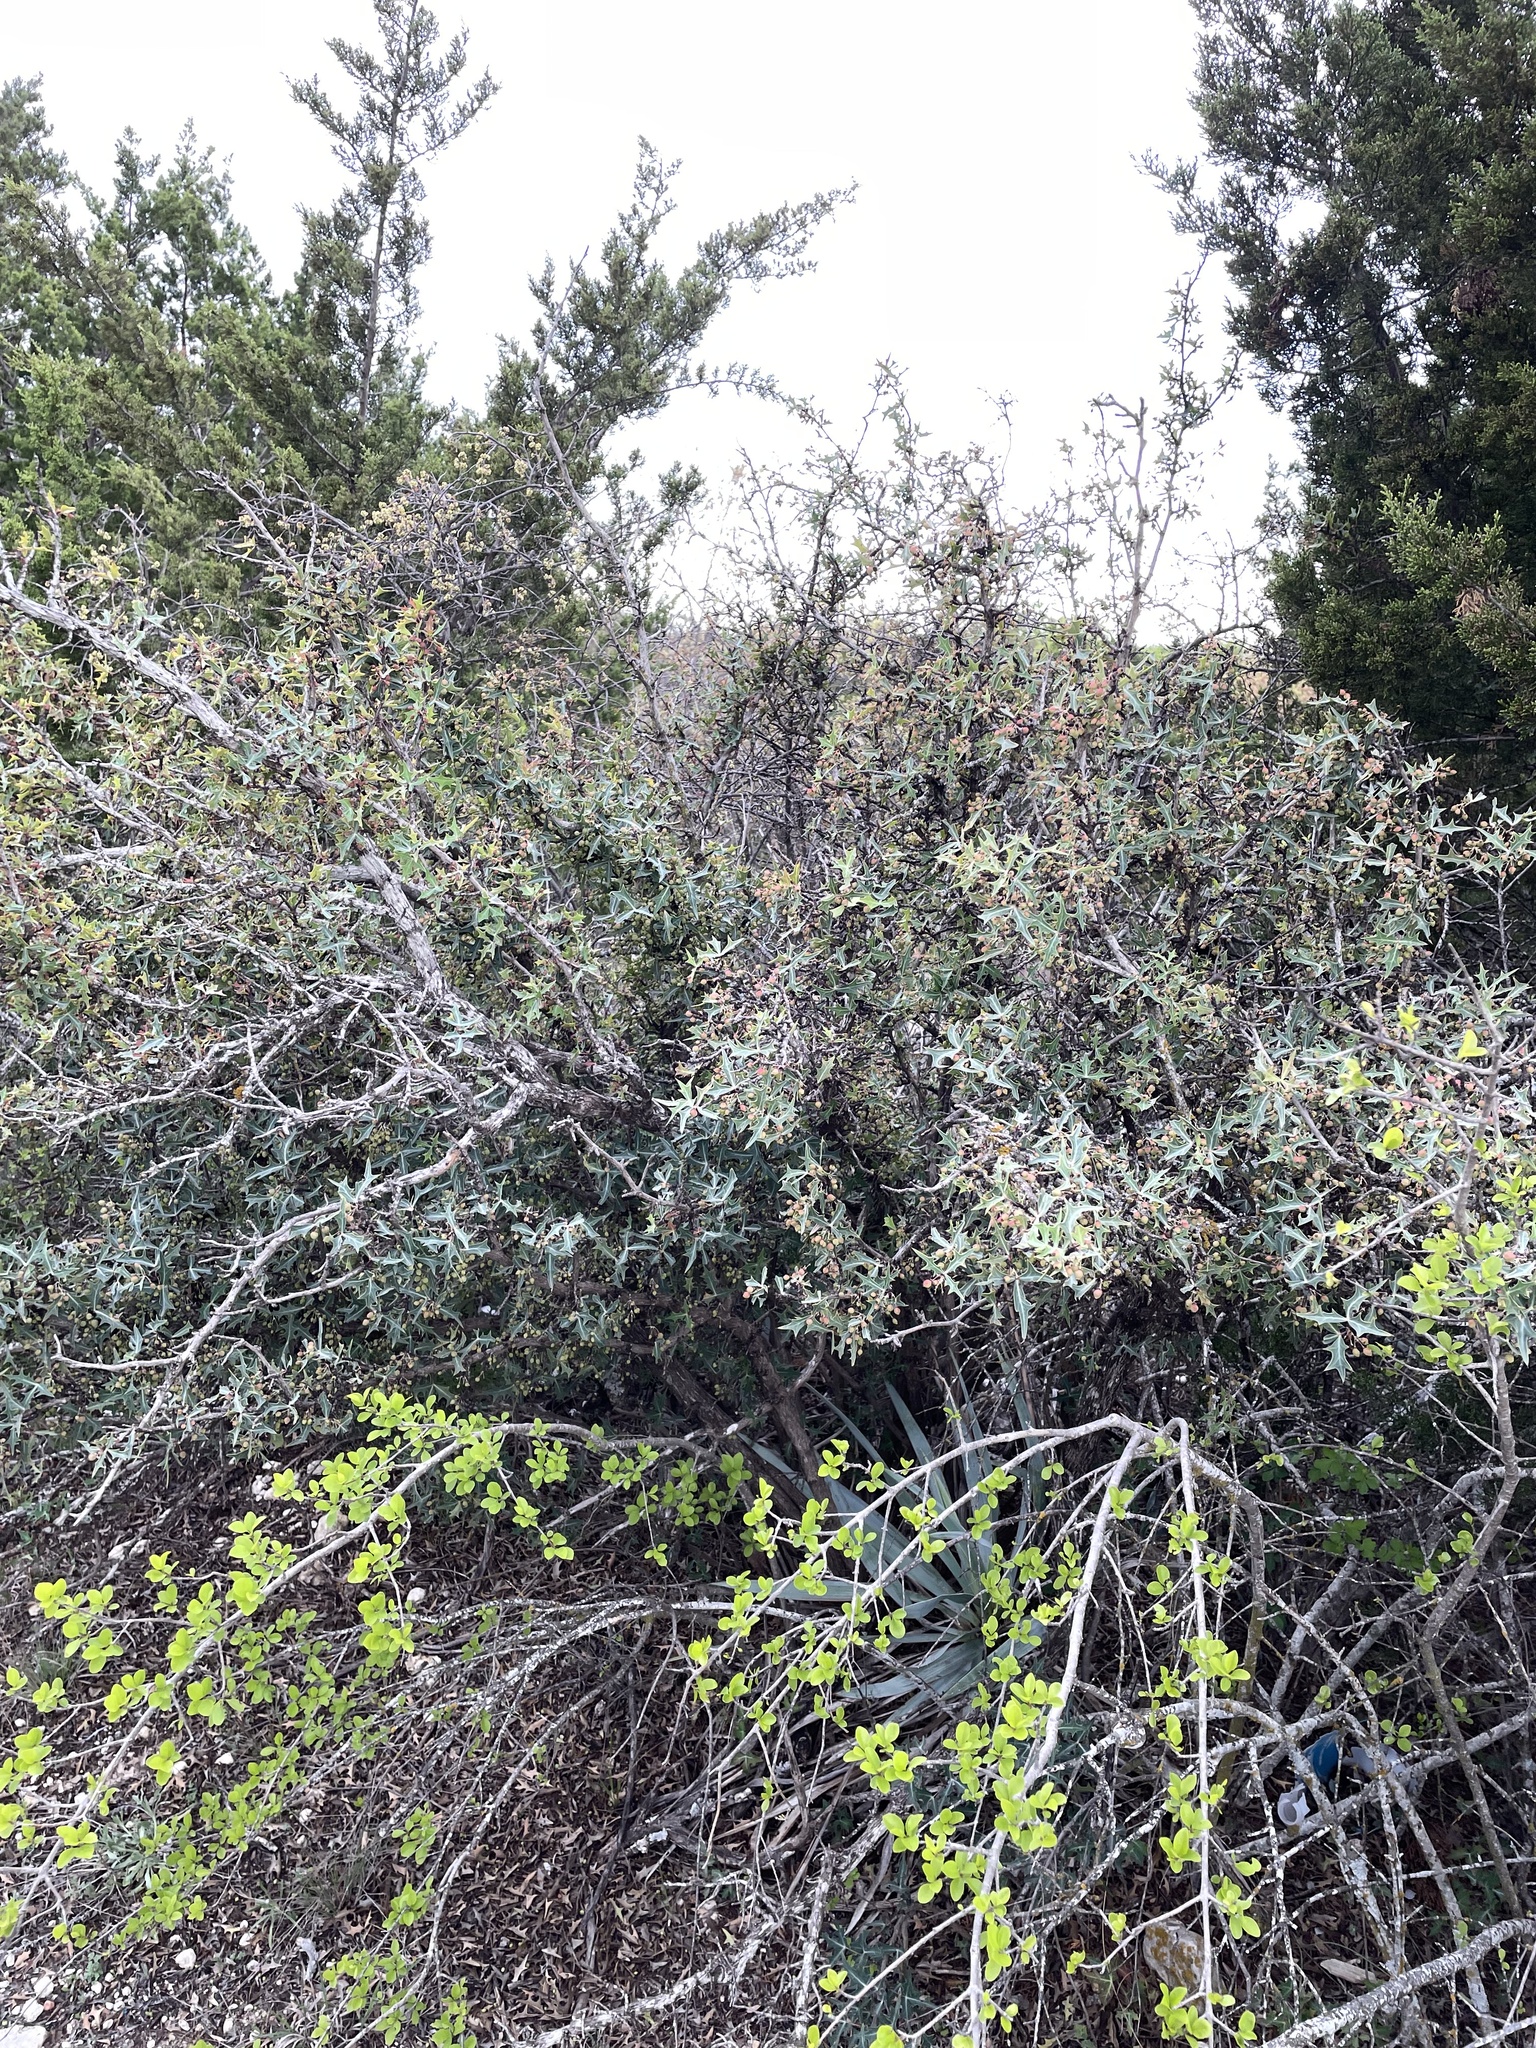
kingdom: Plantae
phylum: Tracheophyta
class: Magnoliopsida
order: Ranunculales
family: Berberidaceae
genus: Alloberberis
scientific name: Alloberberis trifoliolata
